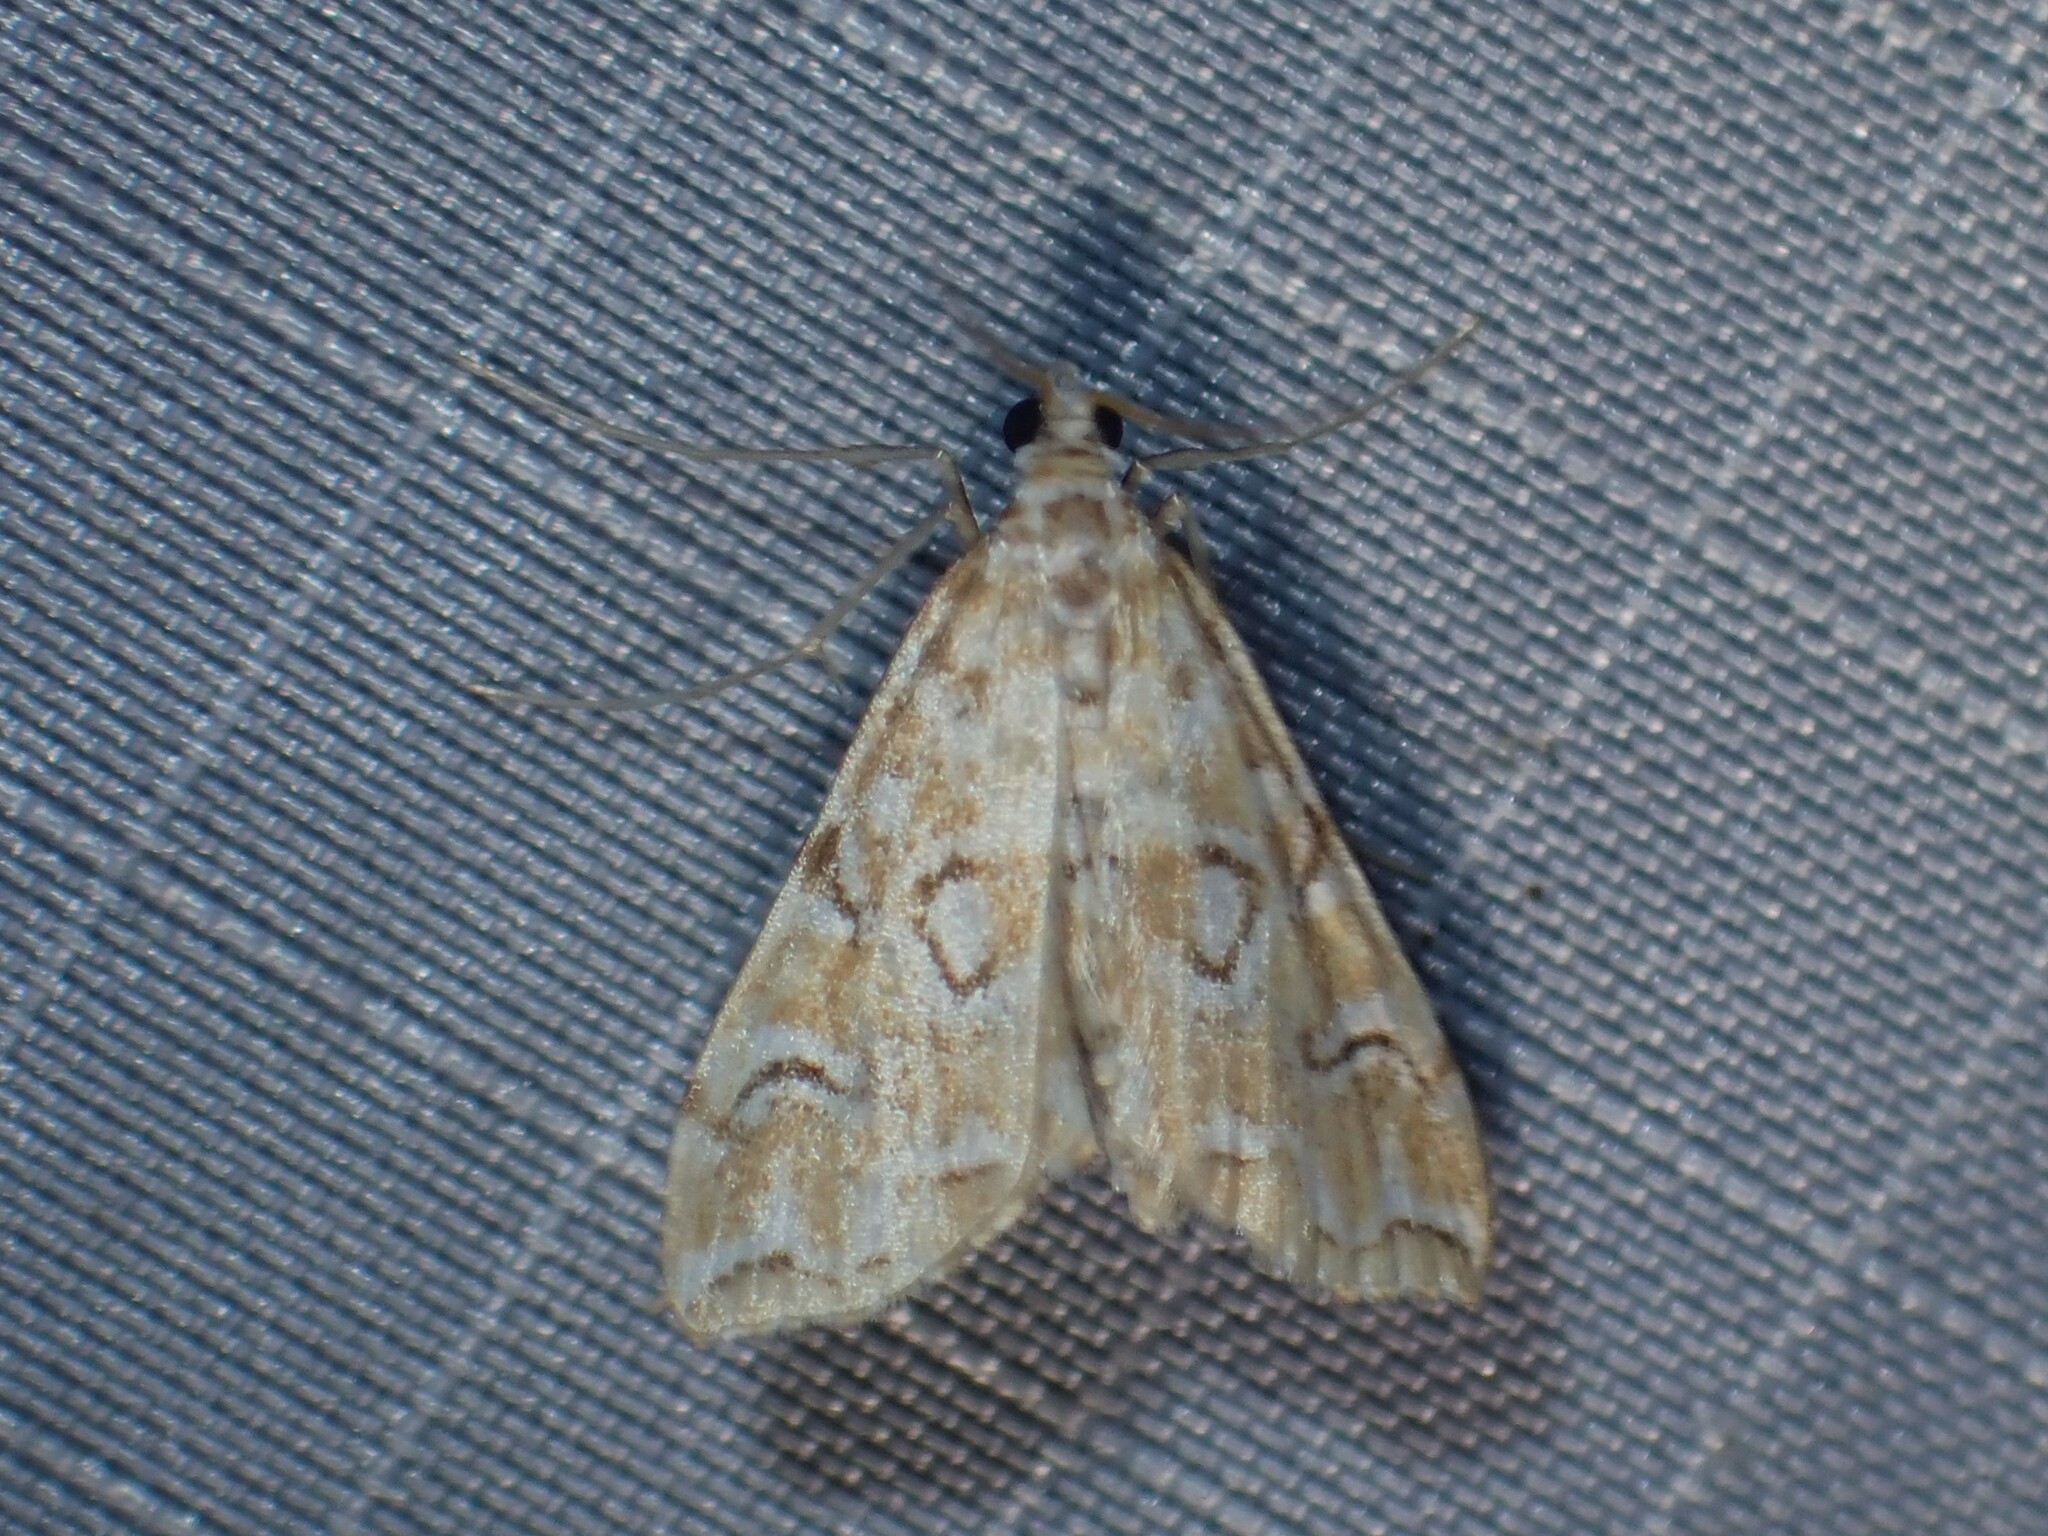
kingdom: Animalia
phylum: Arthropoda
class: Insecta
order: Lepidoptera
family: Crambidae
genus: Elophila
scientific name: Elophila icciusalis
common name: Pondside pyralid moth
